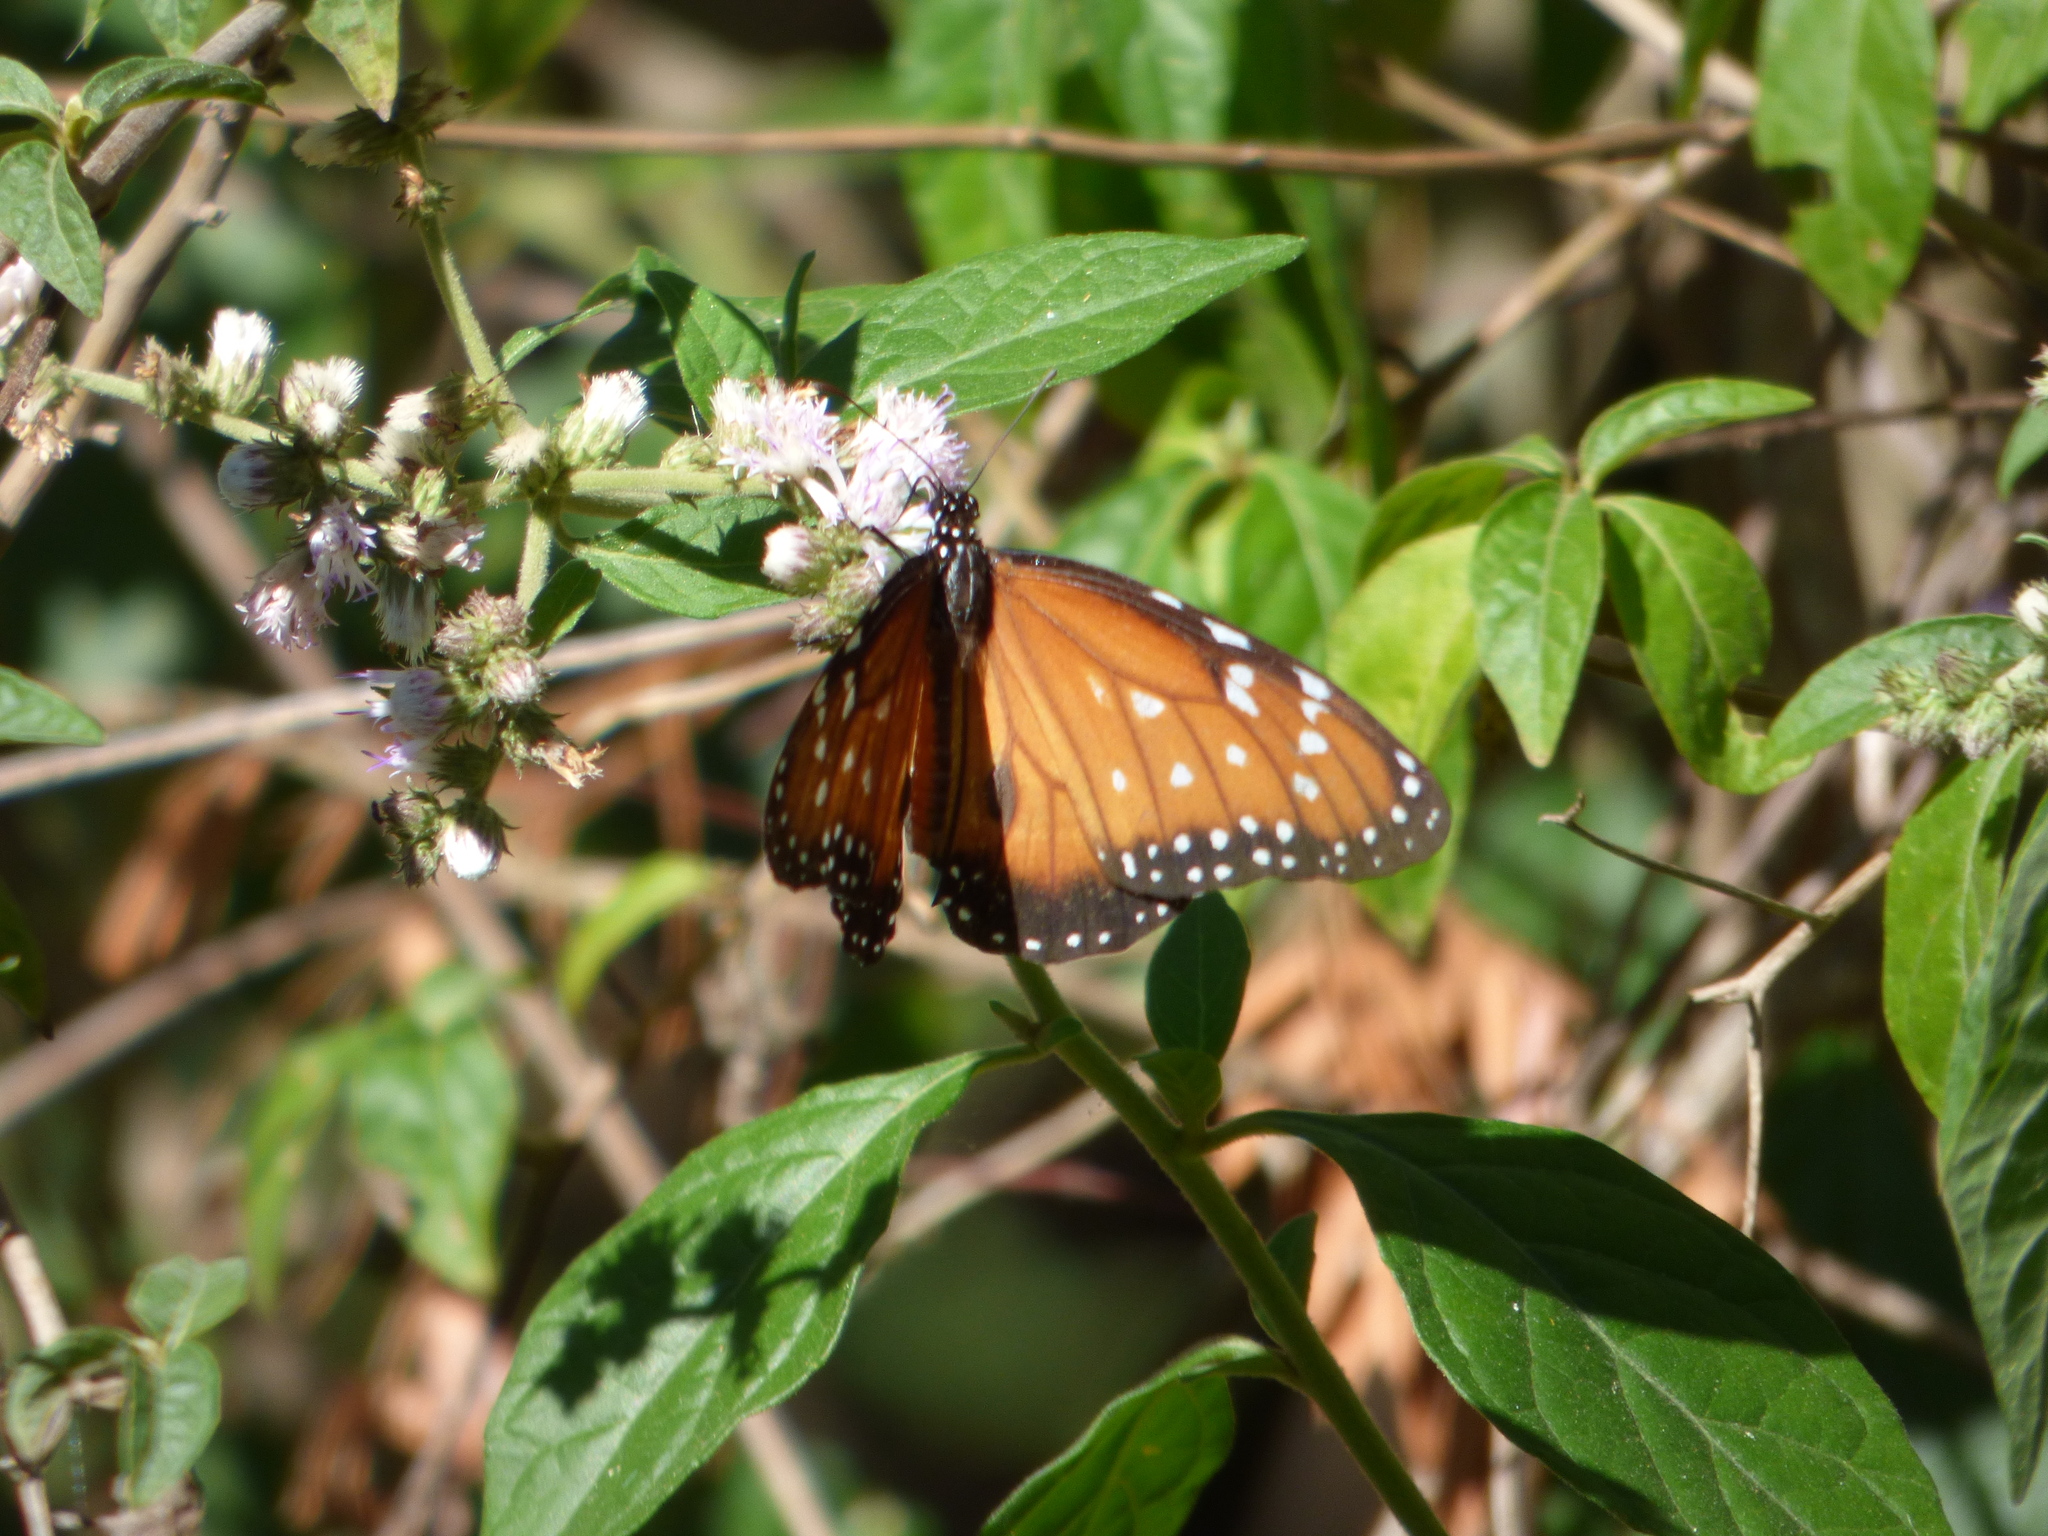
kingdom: Animalia
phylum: Arthropoda
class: Insecta
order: Lepidoptera
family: Nymphalidae
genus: Danaus
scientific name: Danaus eresimus
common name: Soldier
